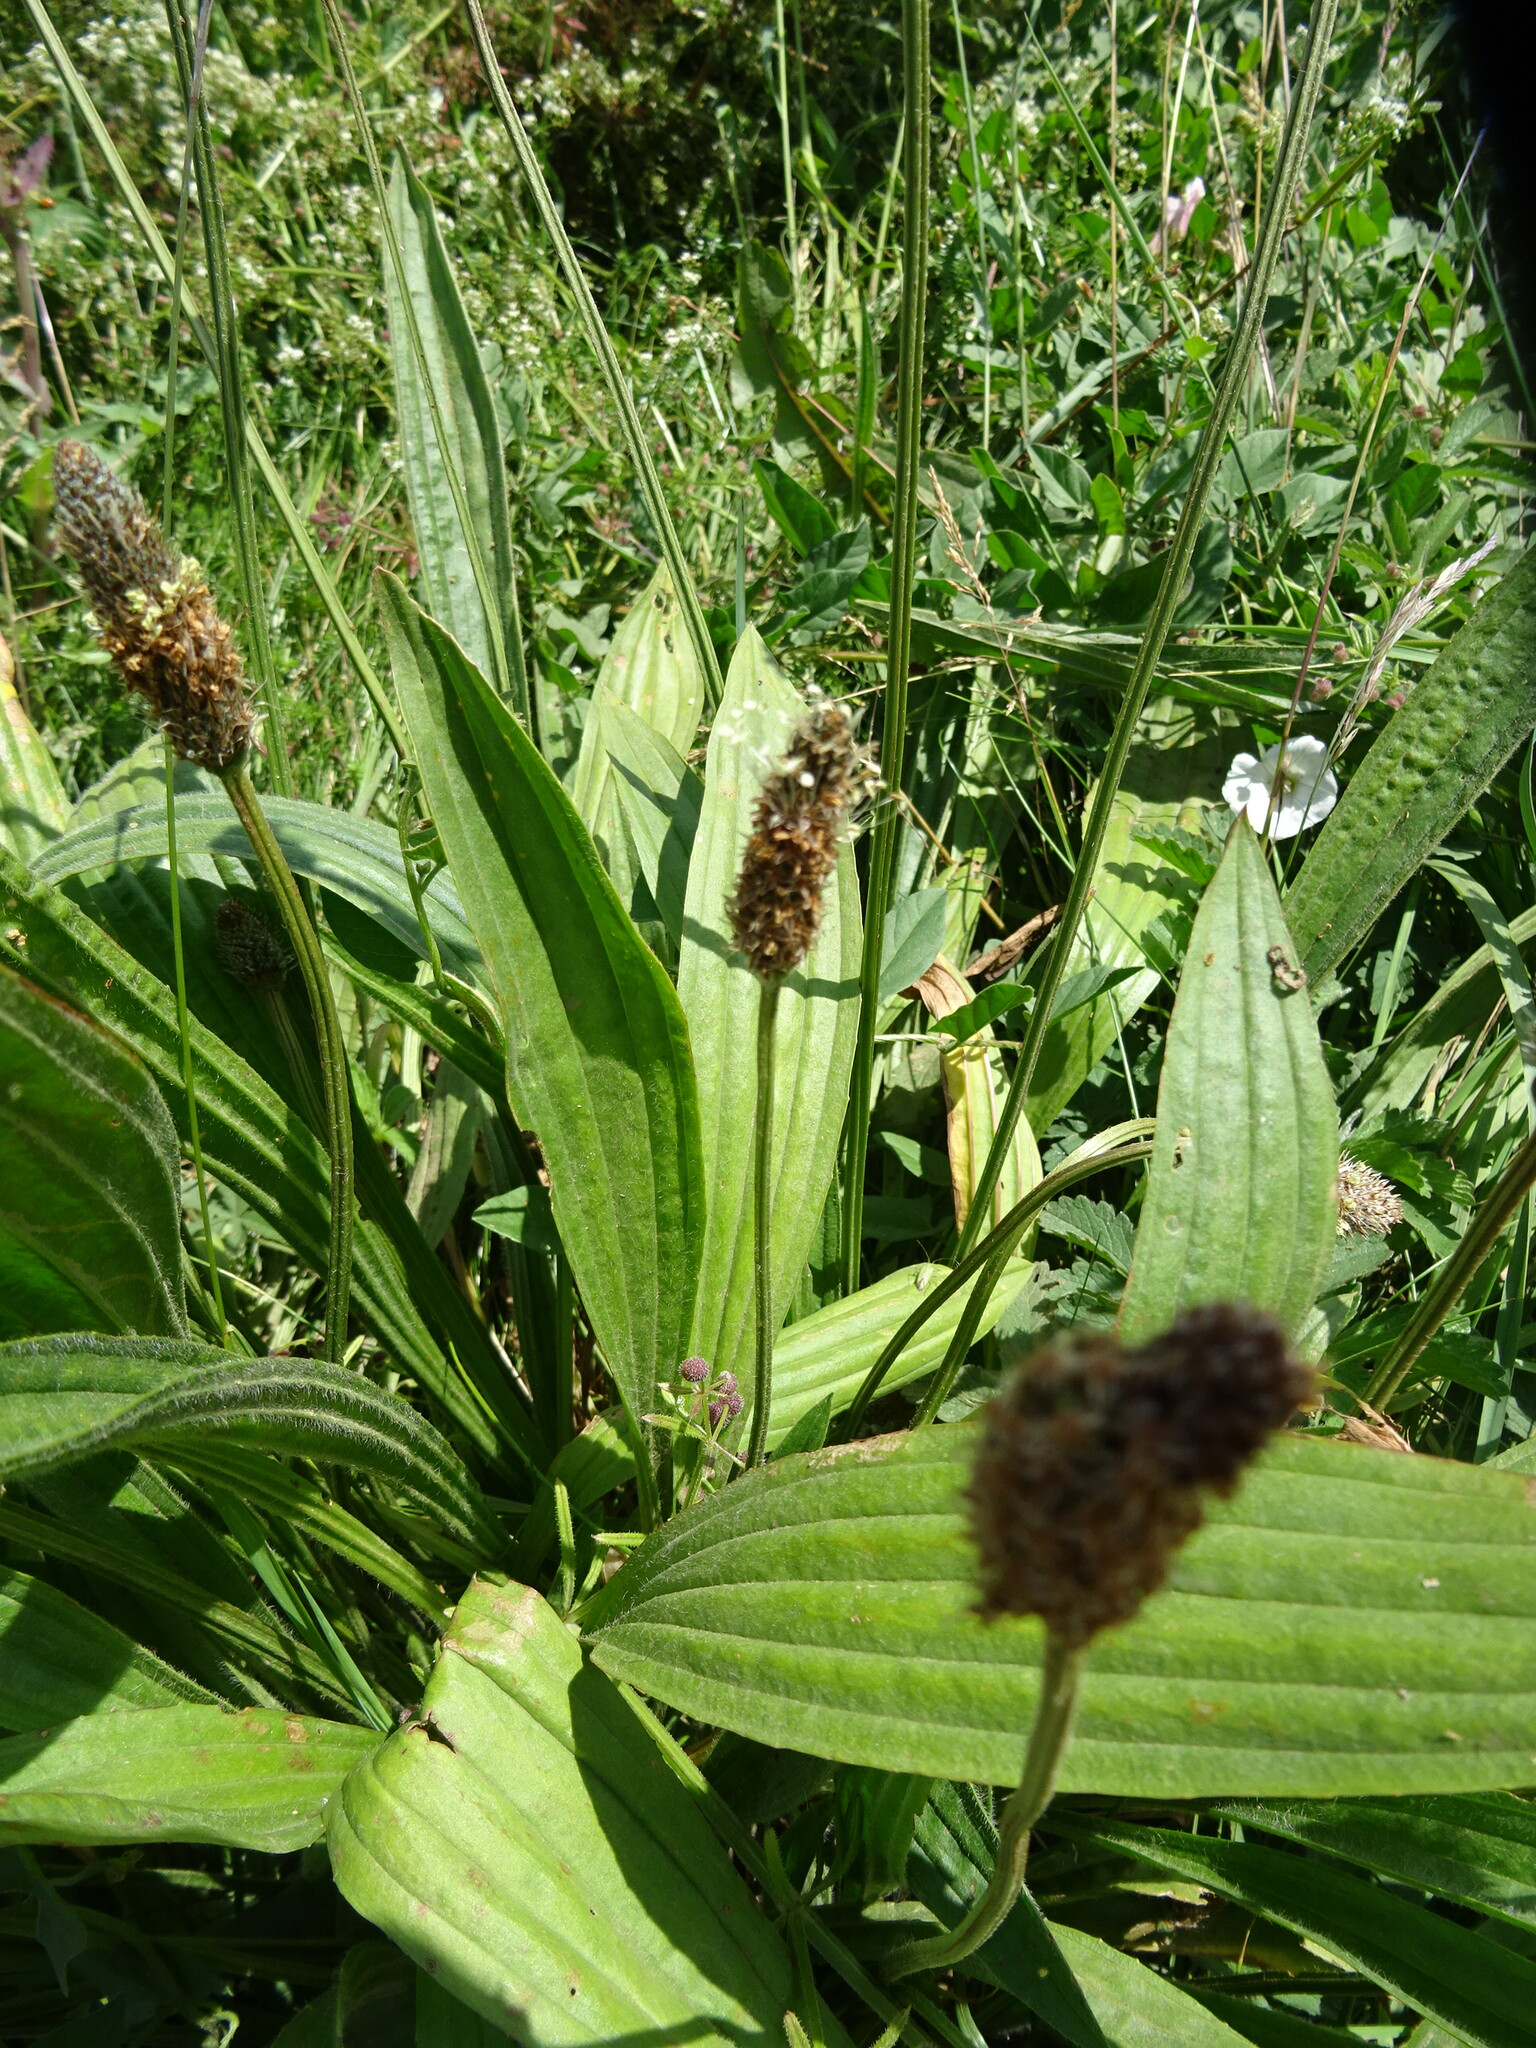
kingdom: Plantae
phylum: Tracheophyta
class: Magnoliopsida
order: Lamiales
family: Plantaginaceae
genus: Plantago
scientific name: Plantago lanceolata
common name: Ribwort plantain
